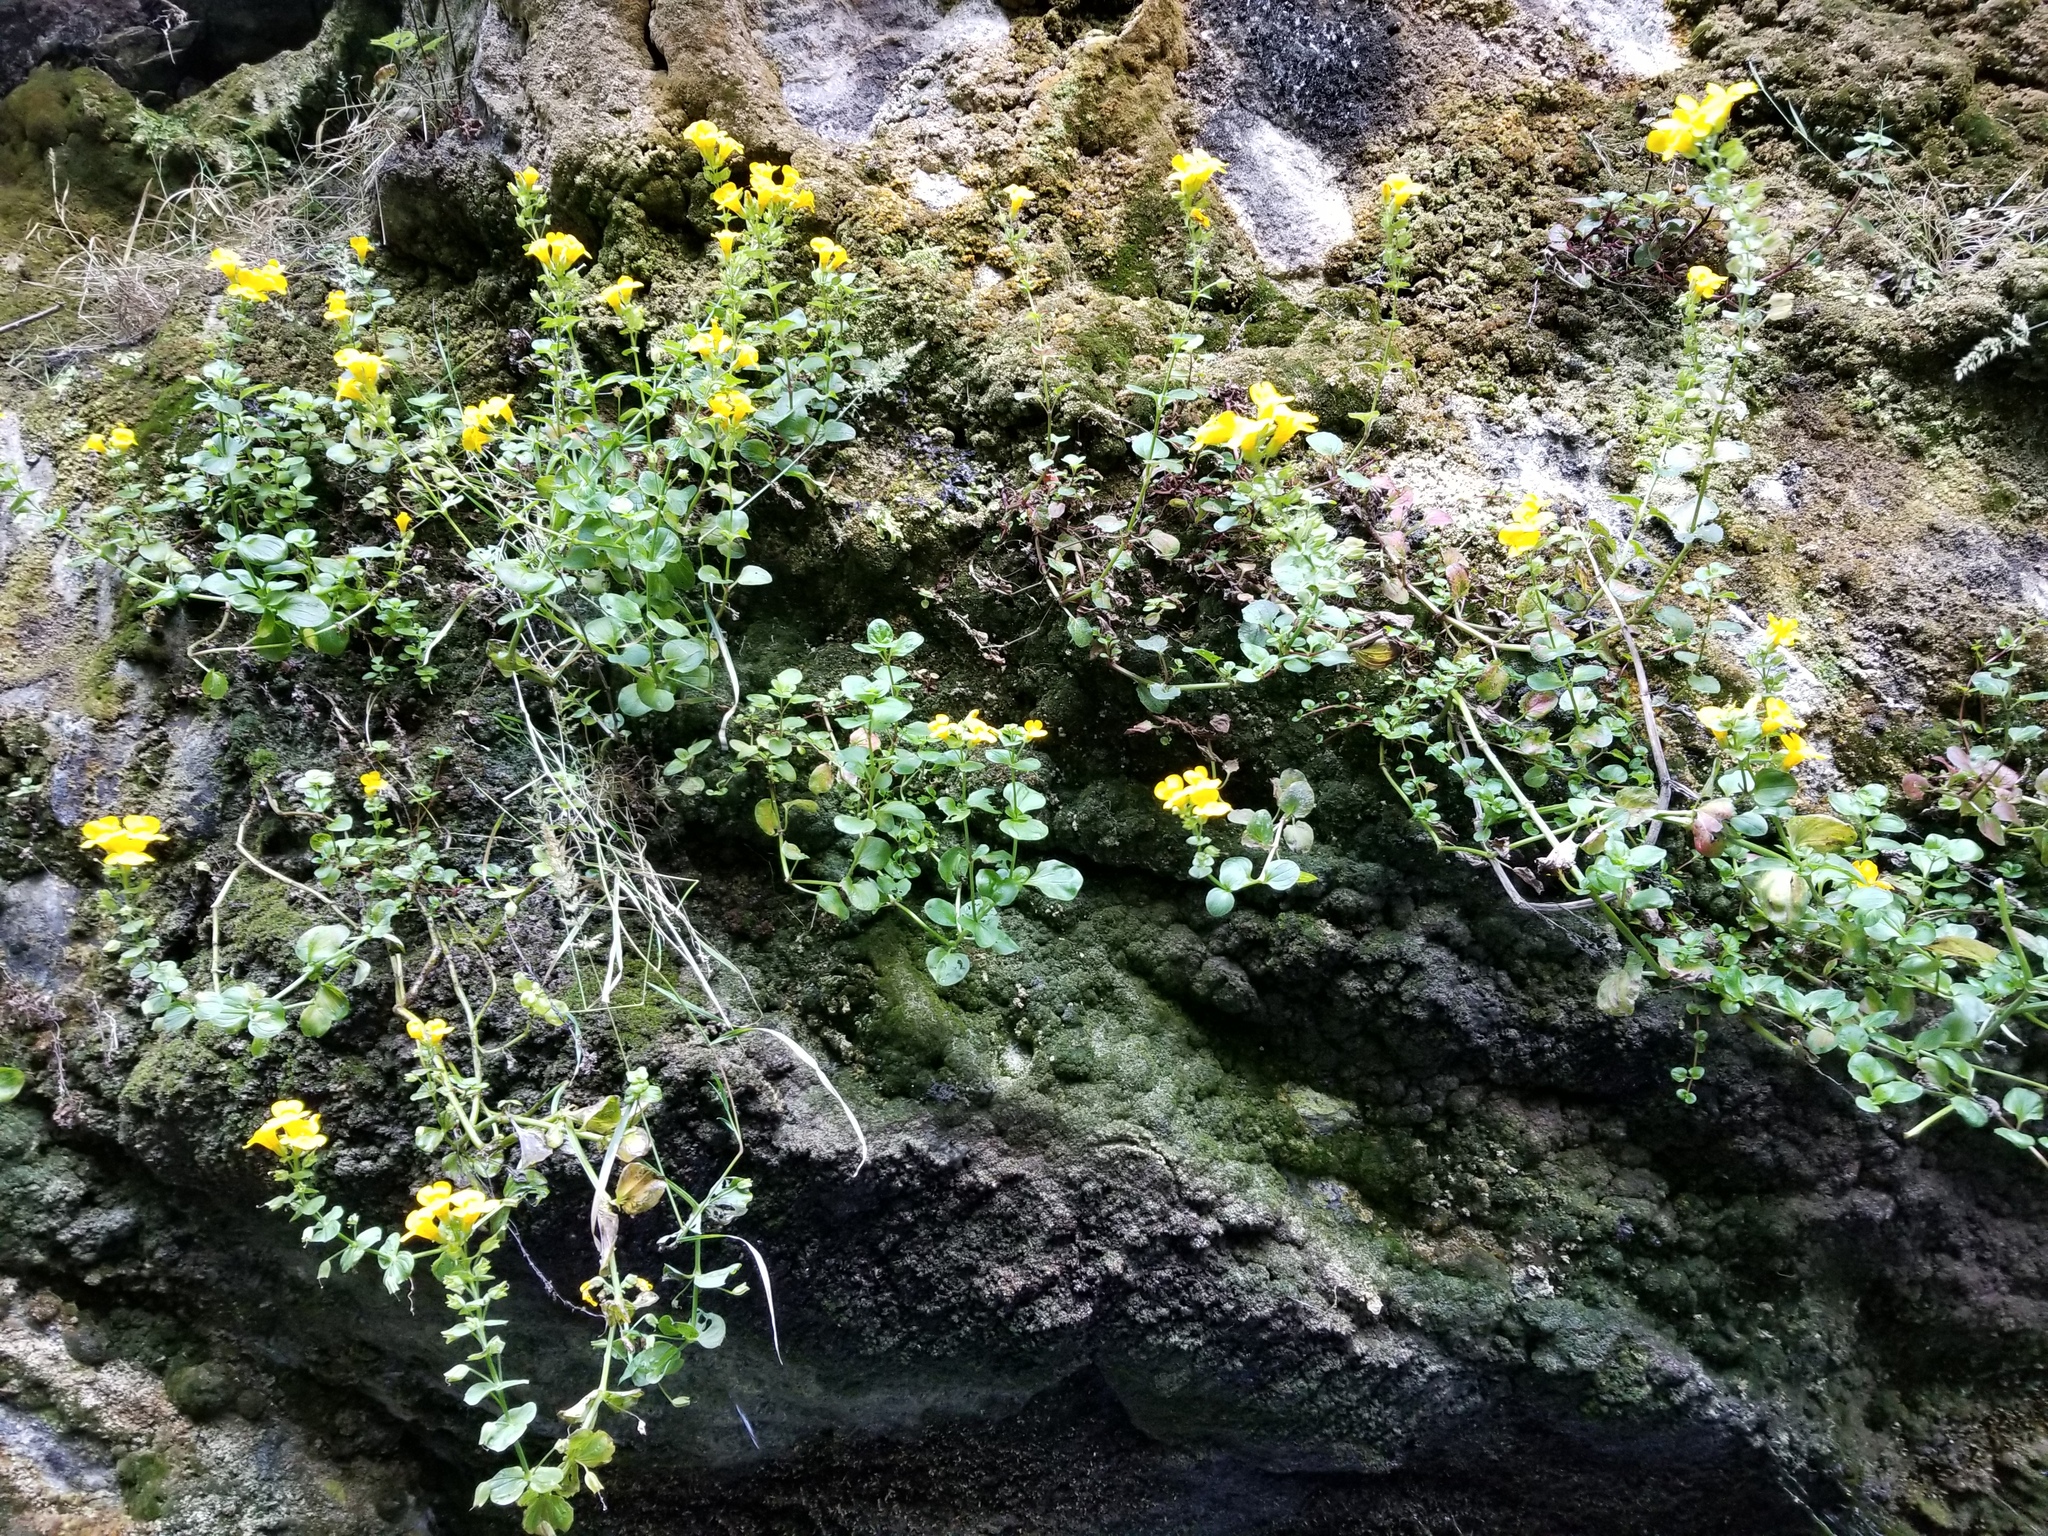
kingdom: Plantae
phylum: Tracheophyta
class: Magnoliopsida
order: Lamiales
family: Phrymaceae
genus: Erythranthe
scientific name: Erythranthe grandis
